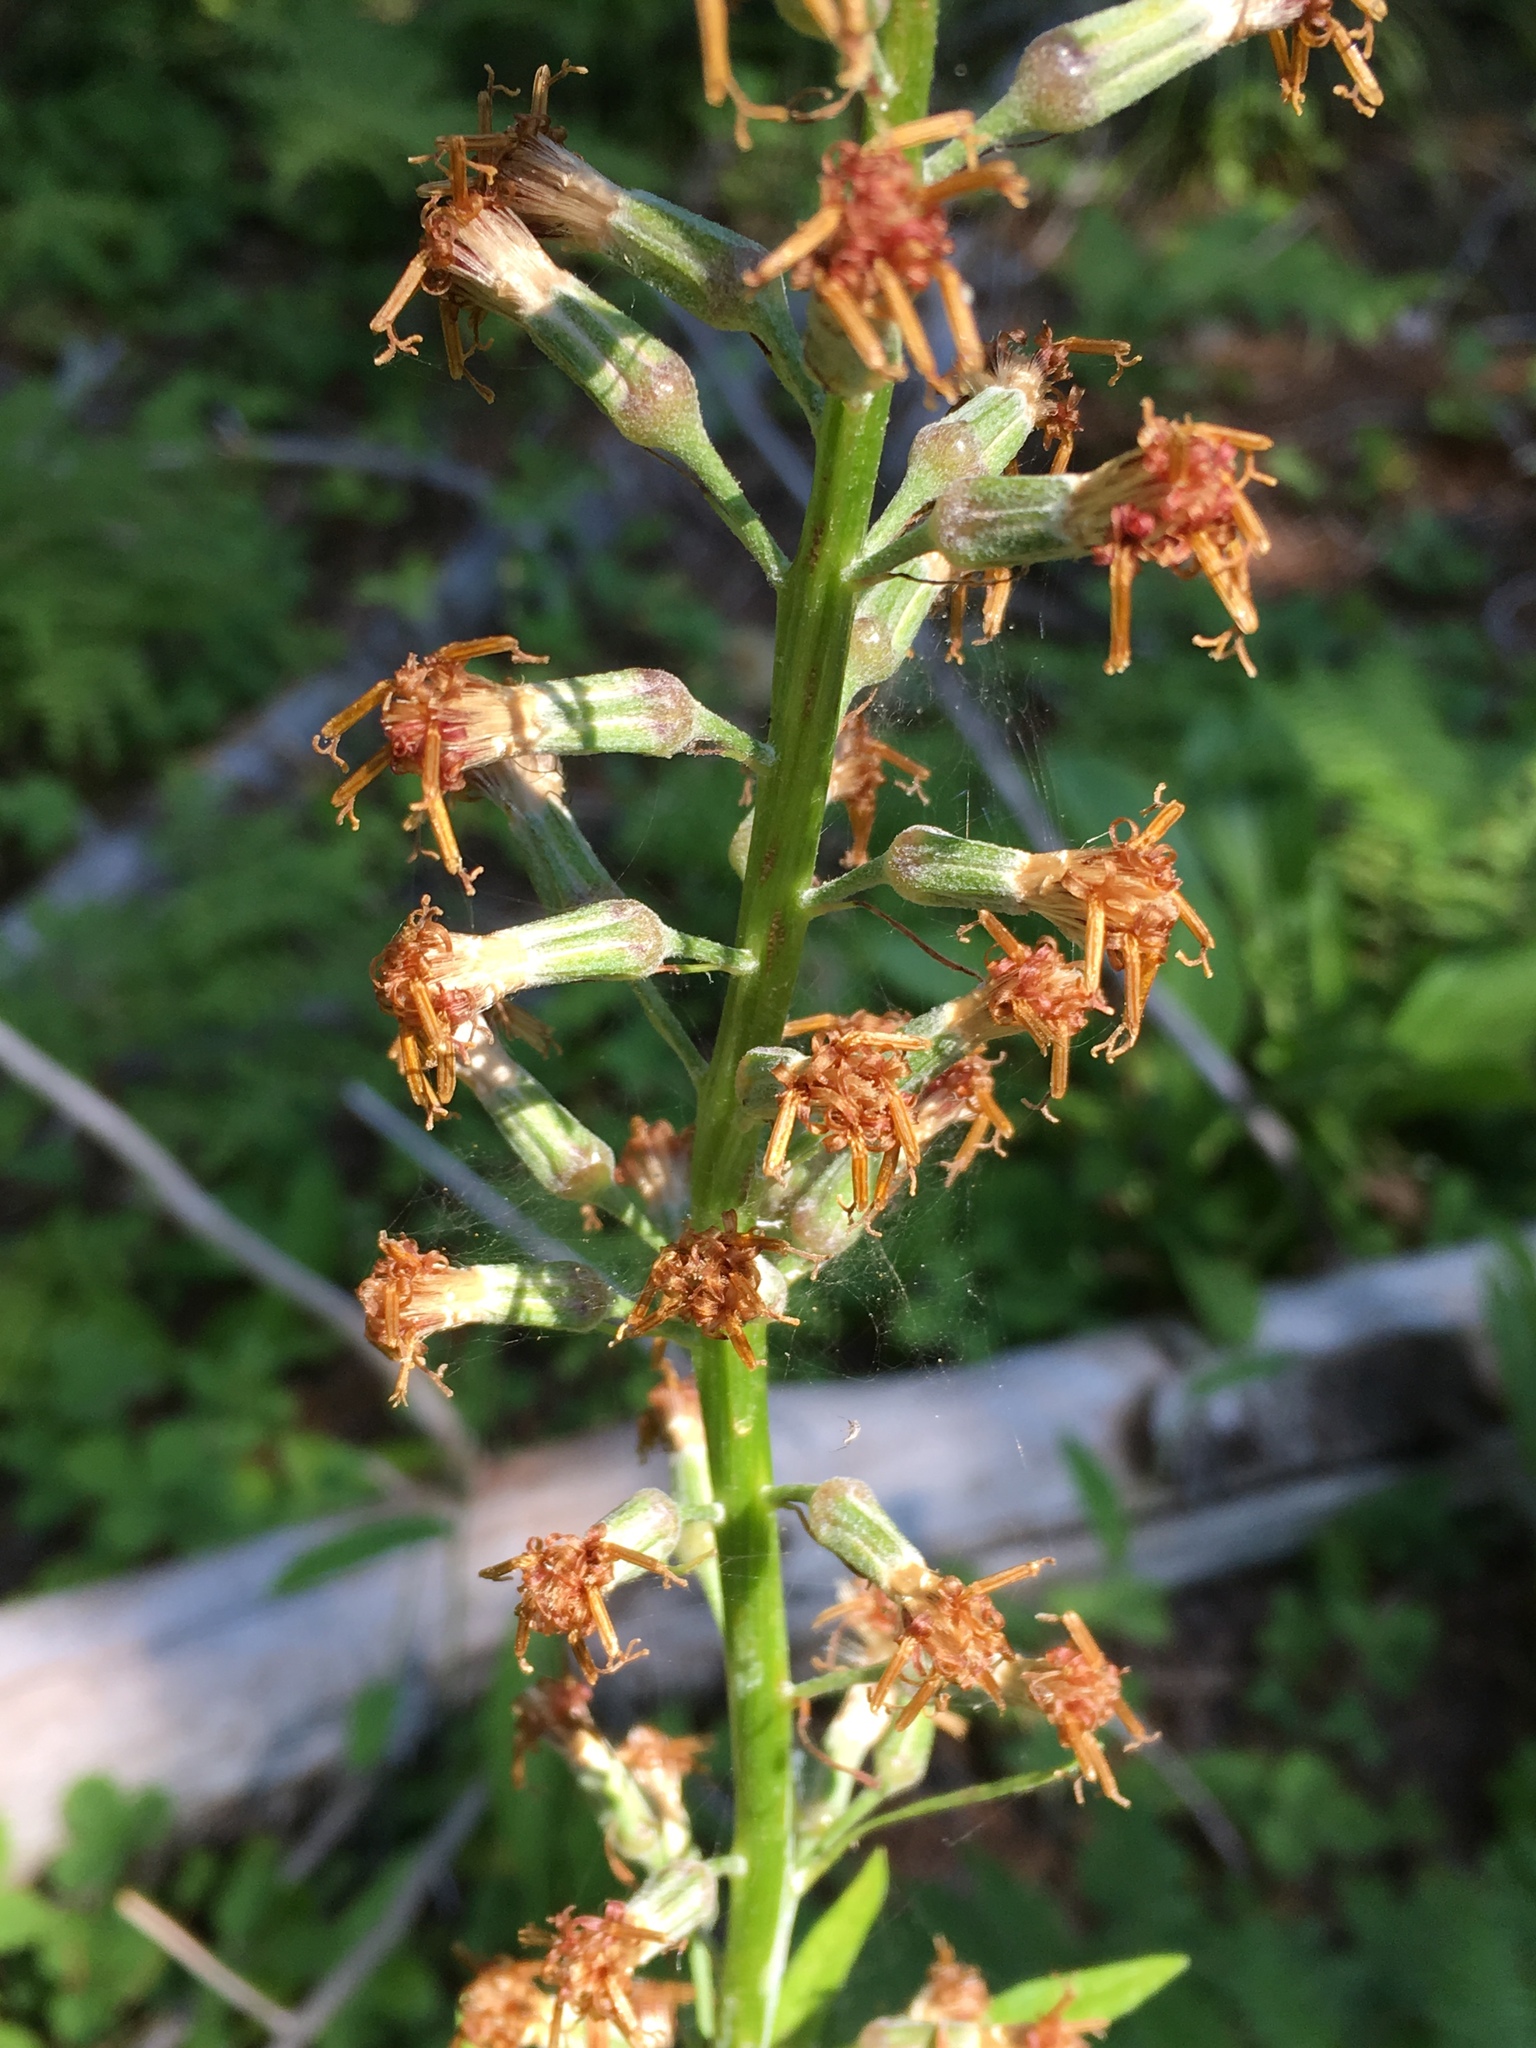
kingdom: Plantae
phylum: Tracheophyta
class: Magnoliopsida
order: Asterales
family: Asteraceae
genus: Rainiera
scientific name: Rainiera stricta
